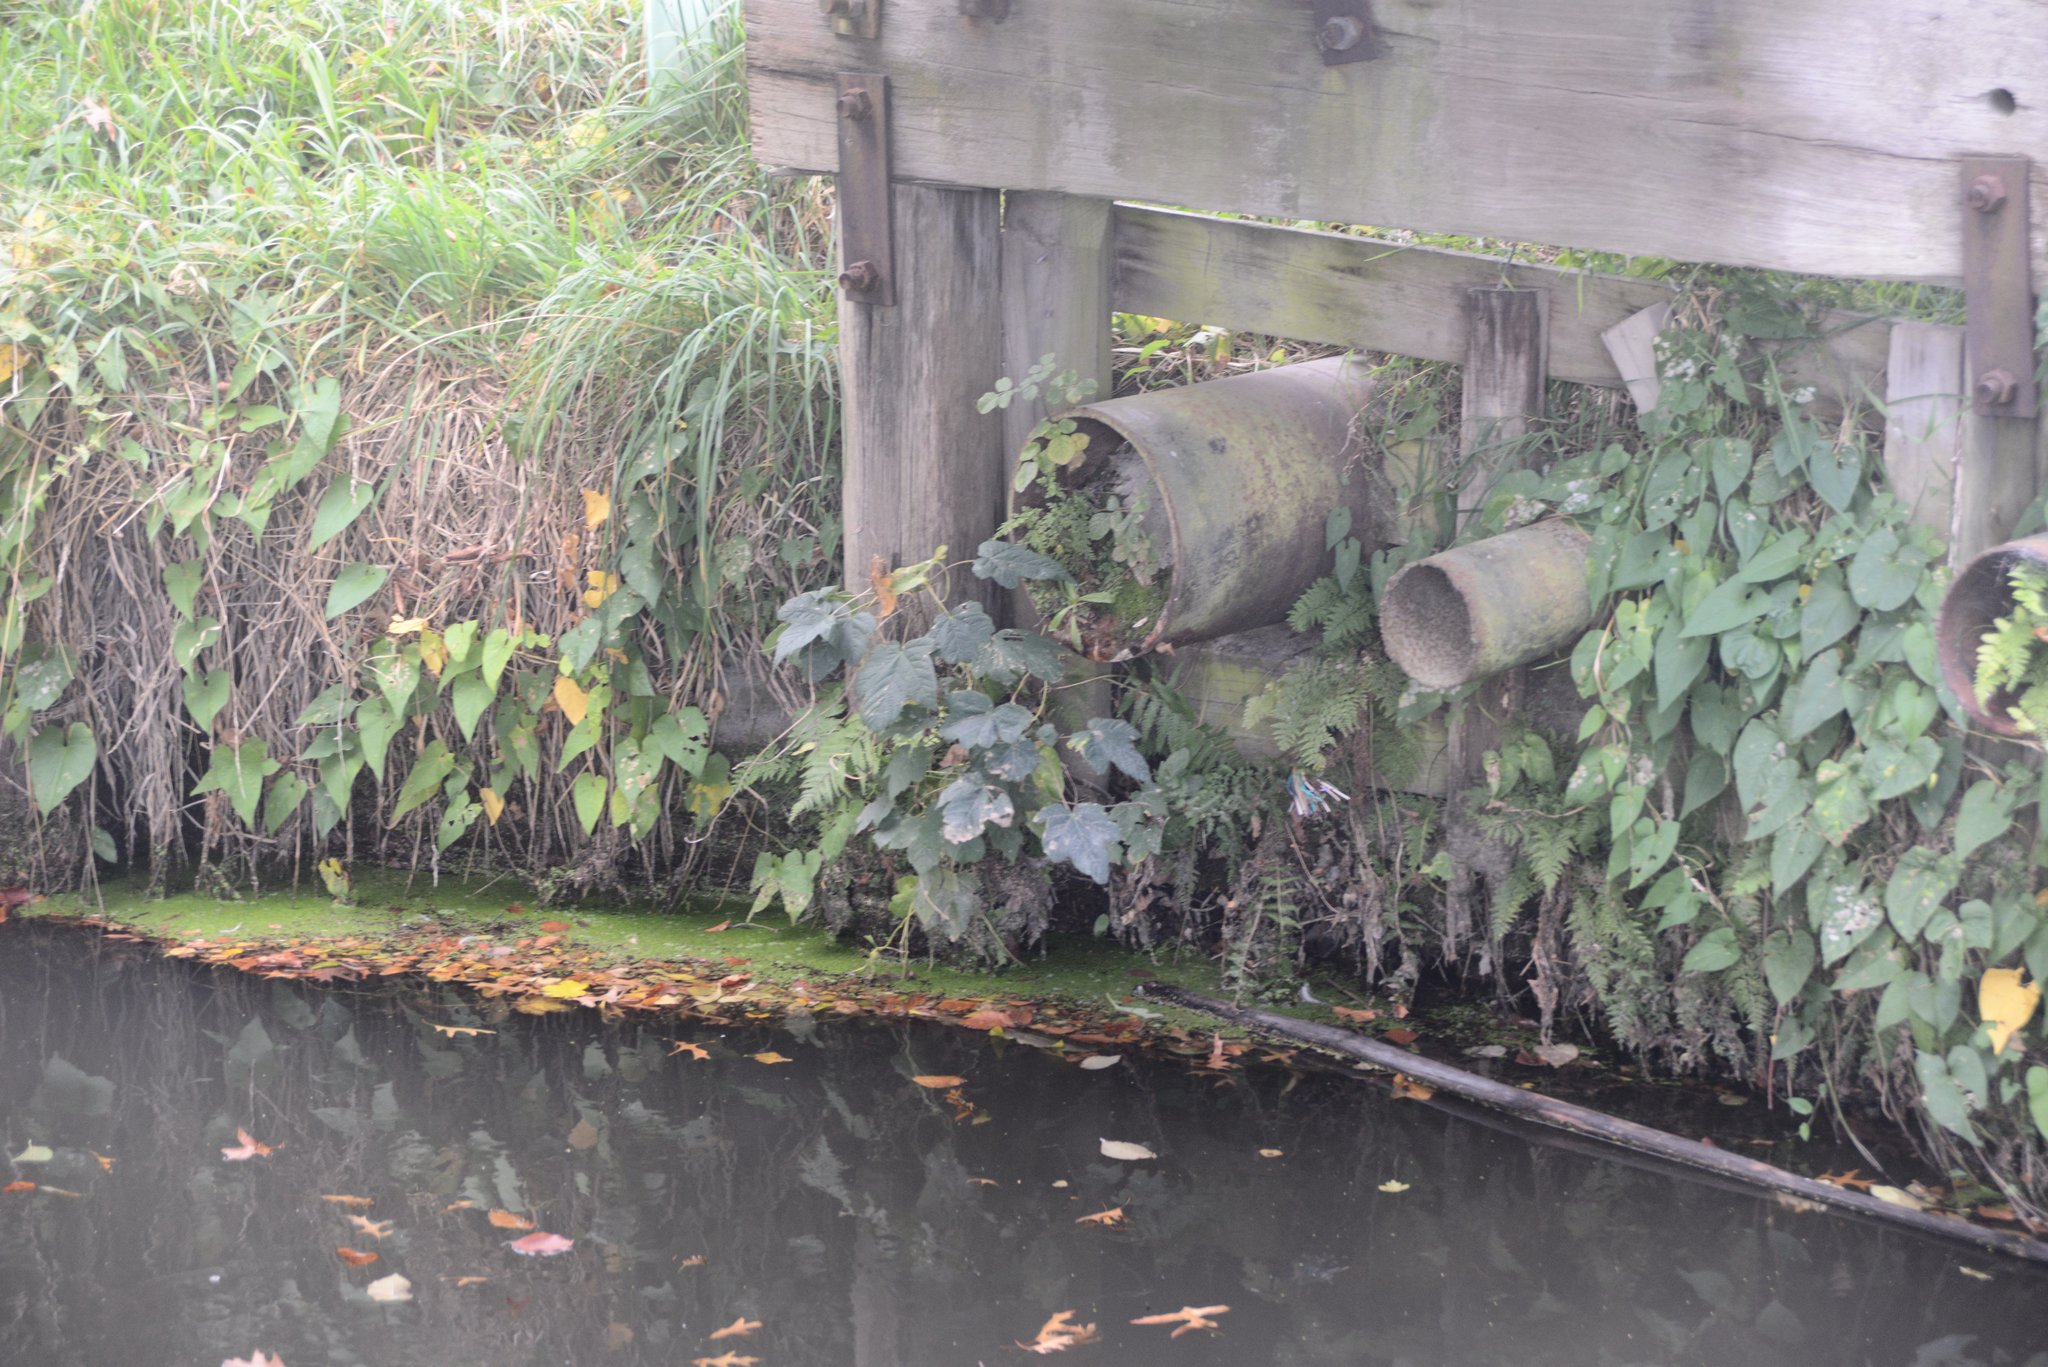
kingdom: Plantae
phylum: Tracheophyta
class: Magnoliopsida
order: Sapindales
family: Sapindaceae
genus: Acer
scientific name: Acer pseudoplatanus
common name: Sycamore
